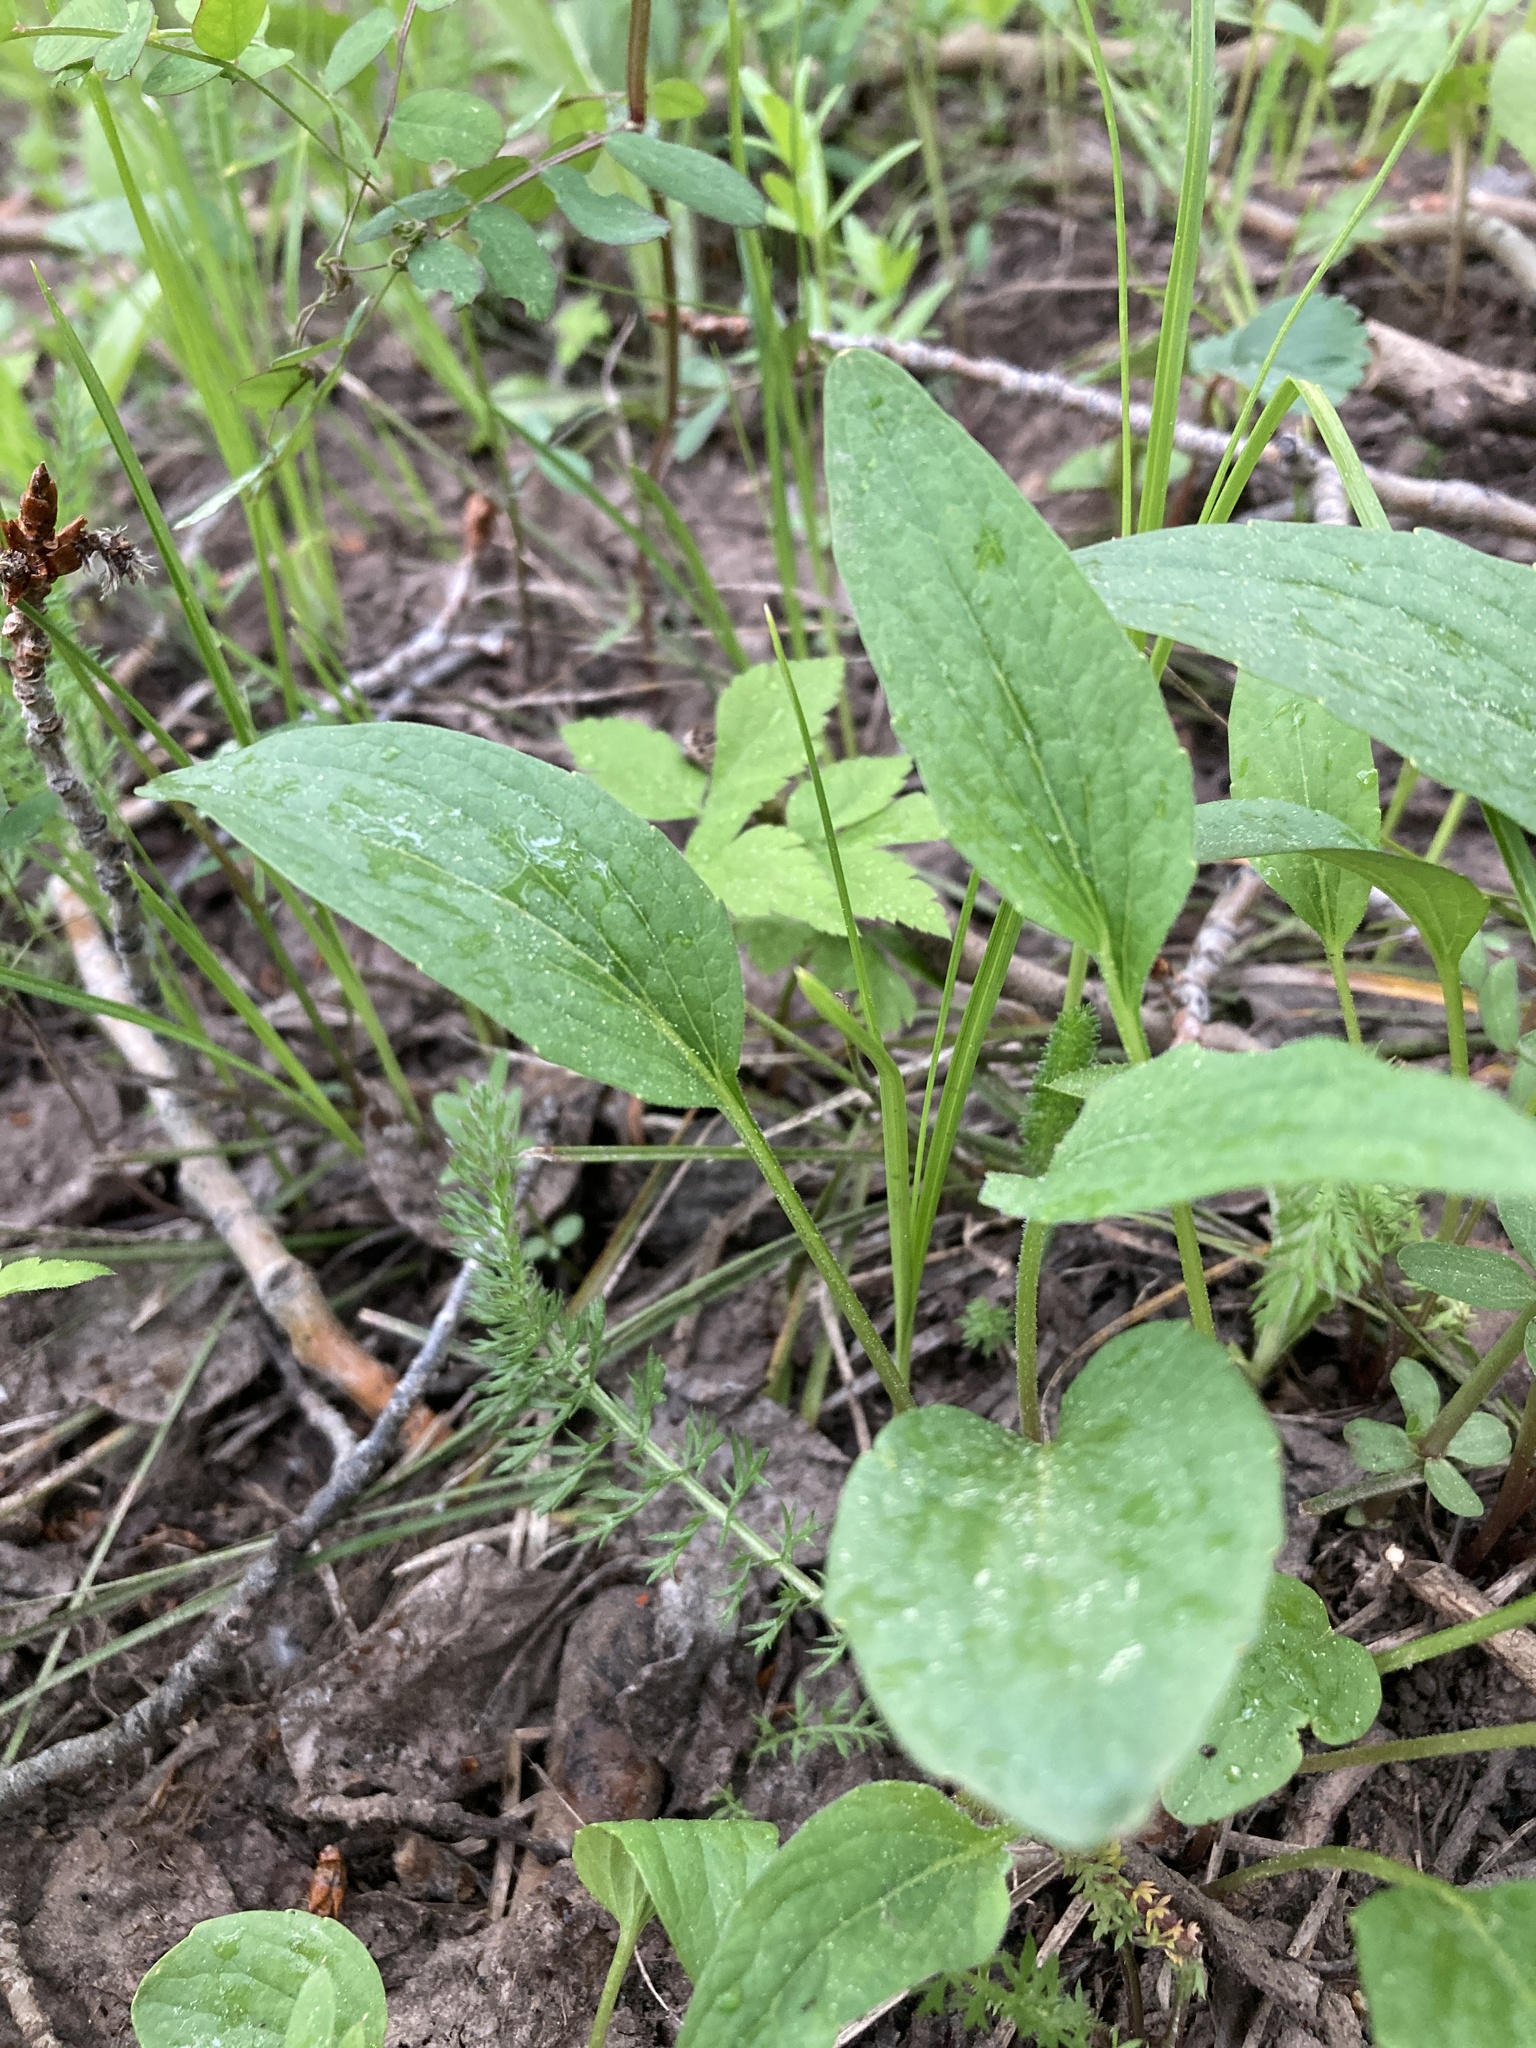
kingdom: Plantae
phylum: Tracheophyta
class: Magnoliopsida
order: Malpighiales
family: Violaceae
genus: Viola
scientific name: Viola nuttallii
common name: Yellow prairie violet
